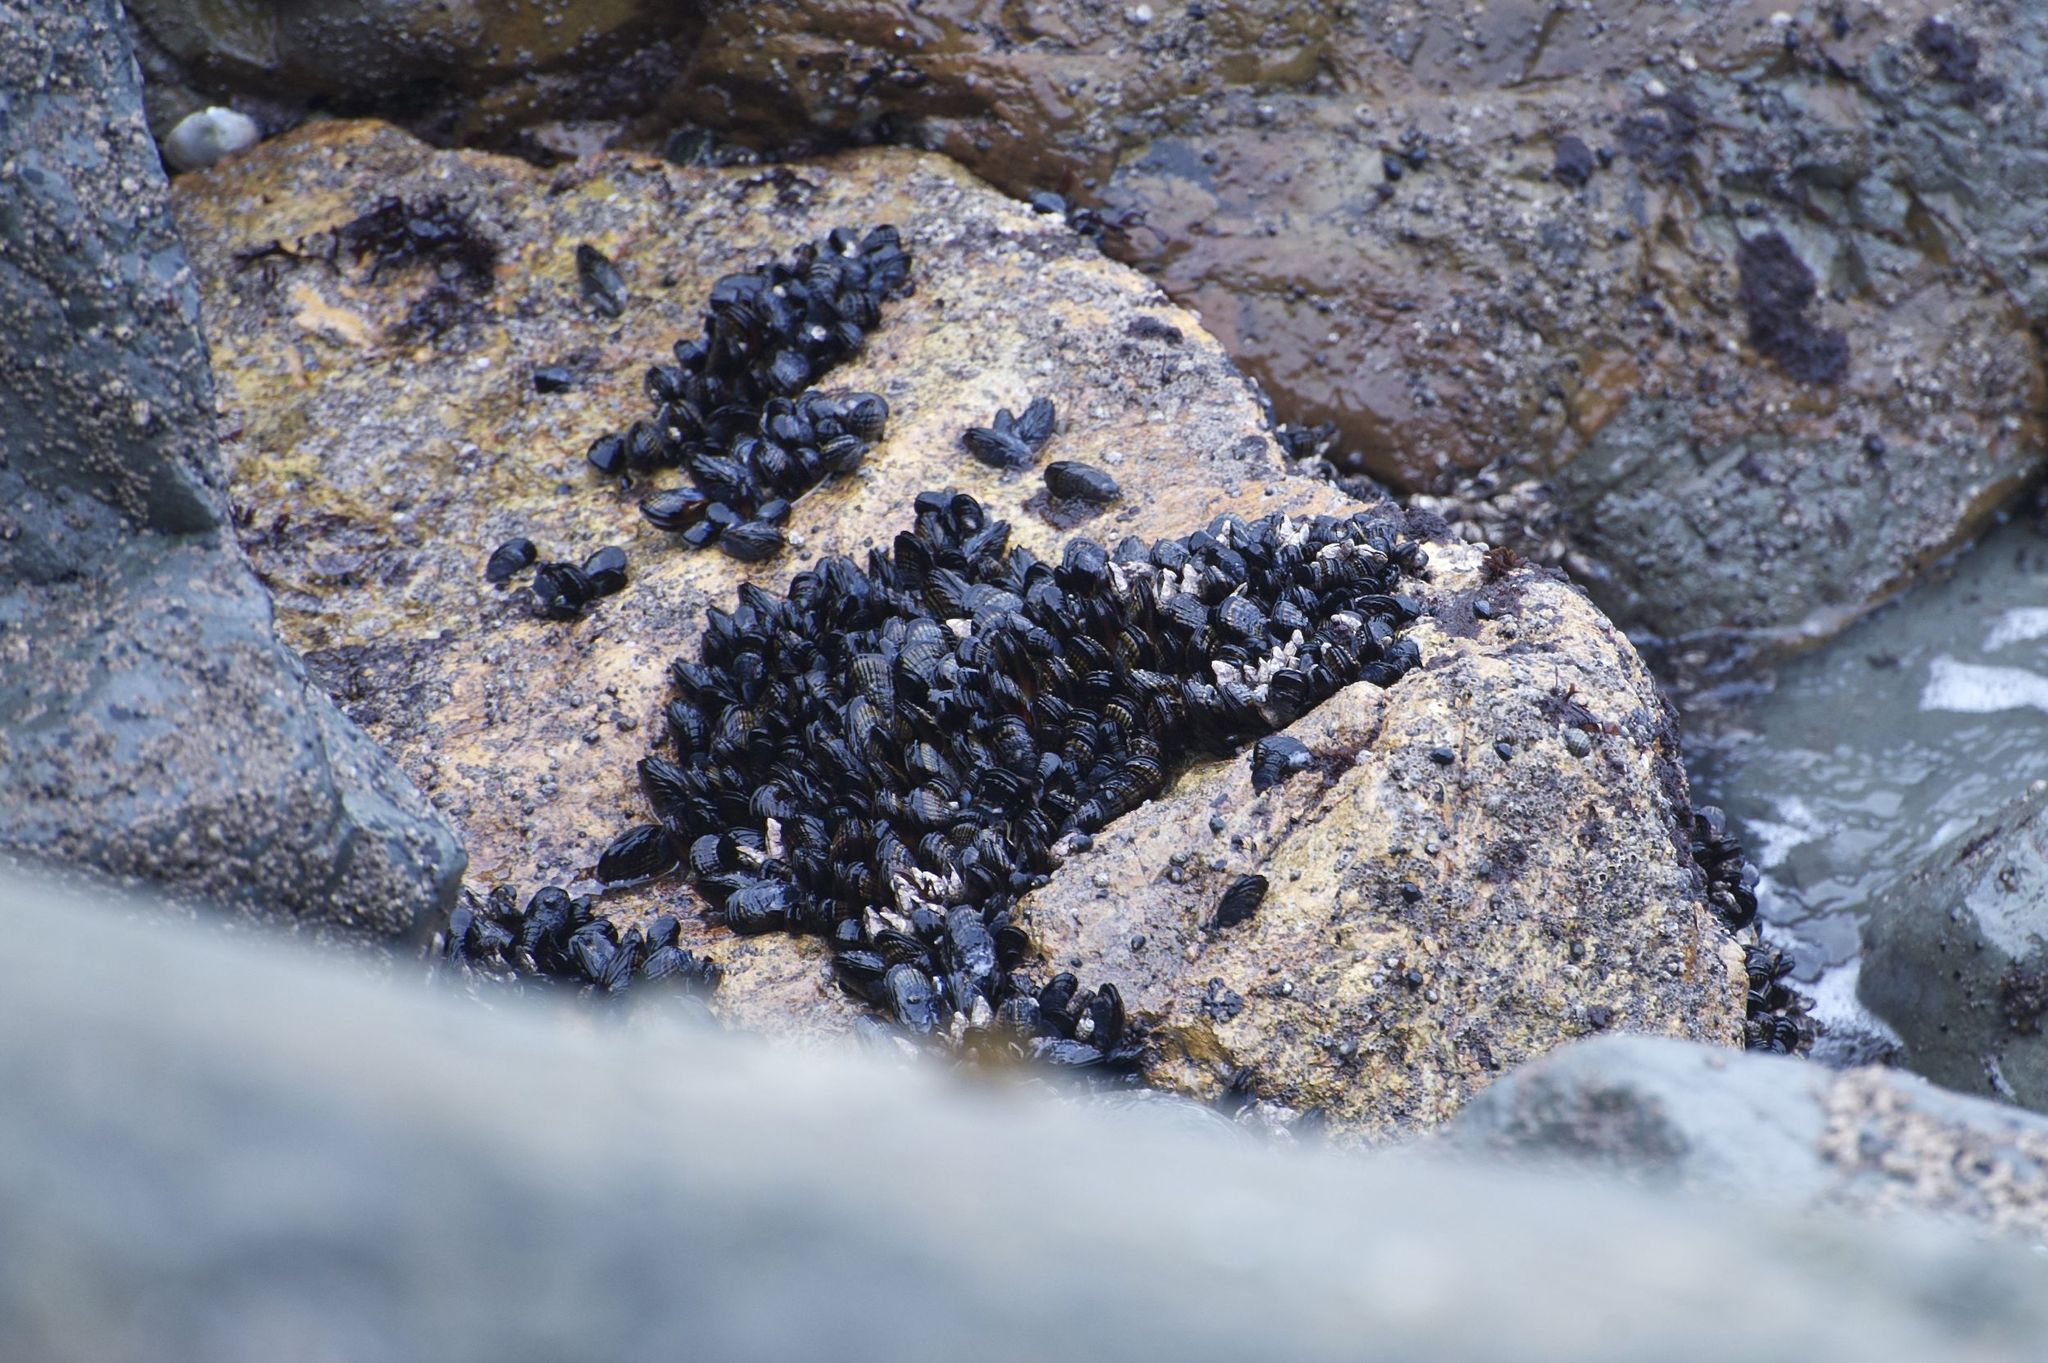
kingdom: Animalia
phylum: Mollusca
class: Bivalvia
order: Mytilida
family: Mytilidae
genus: Mytilus
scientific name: Mytilus californianus
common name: California mussel
